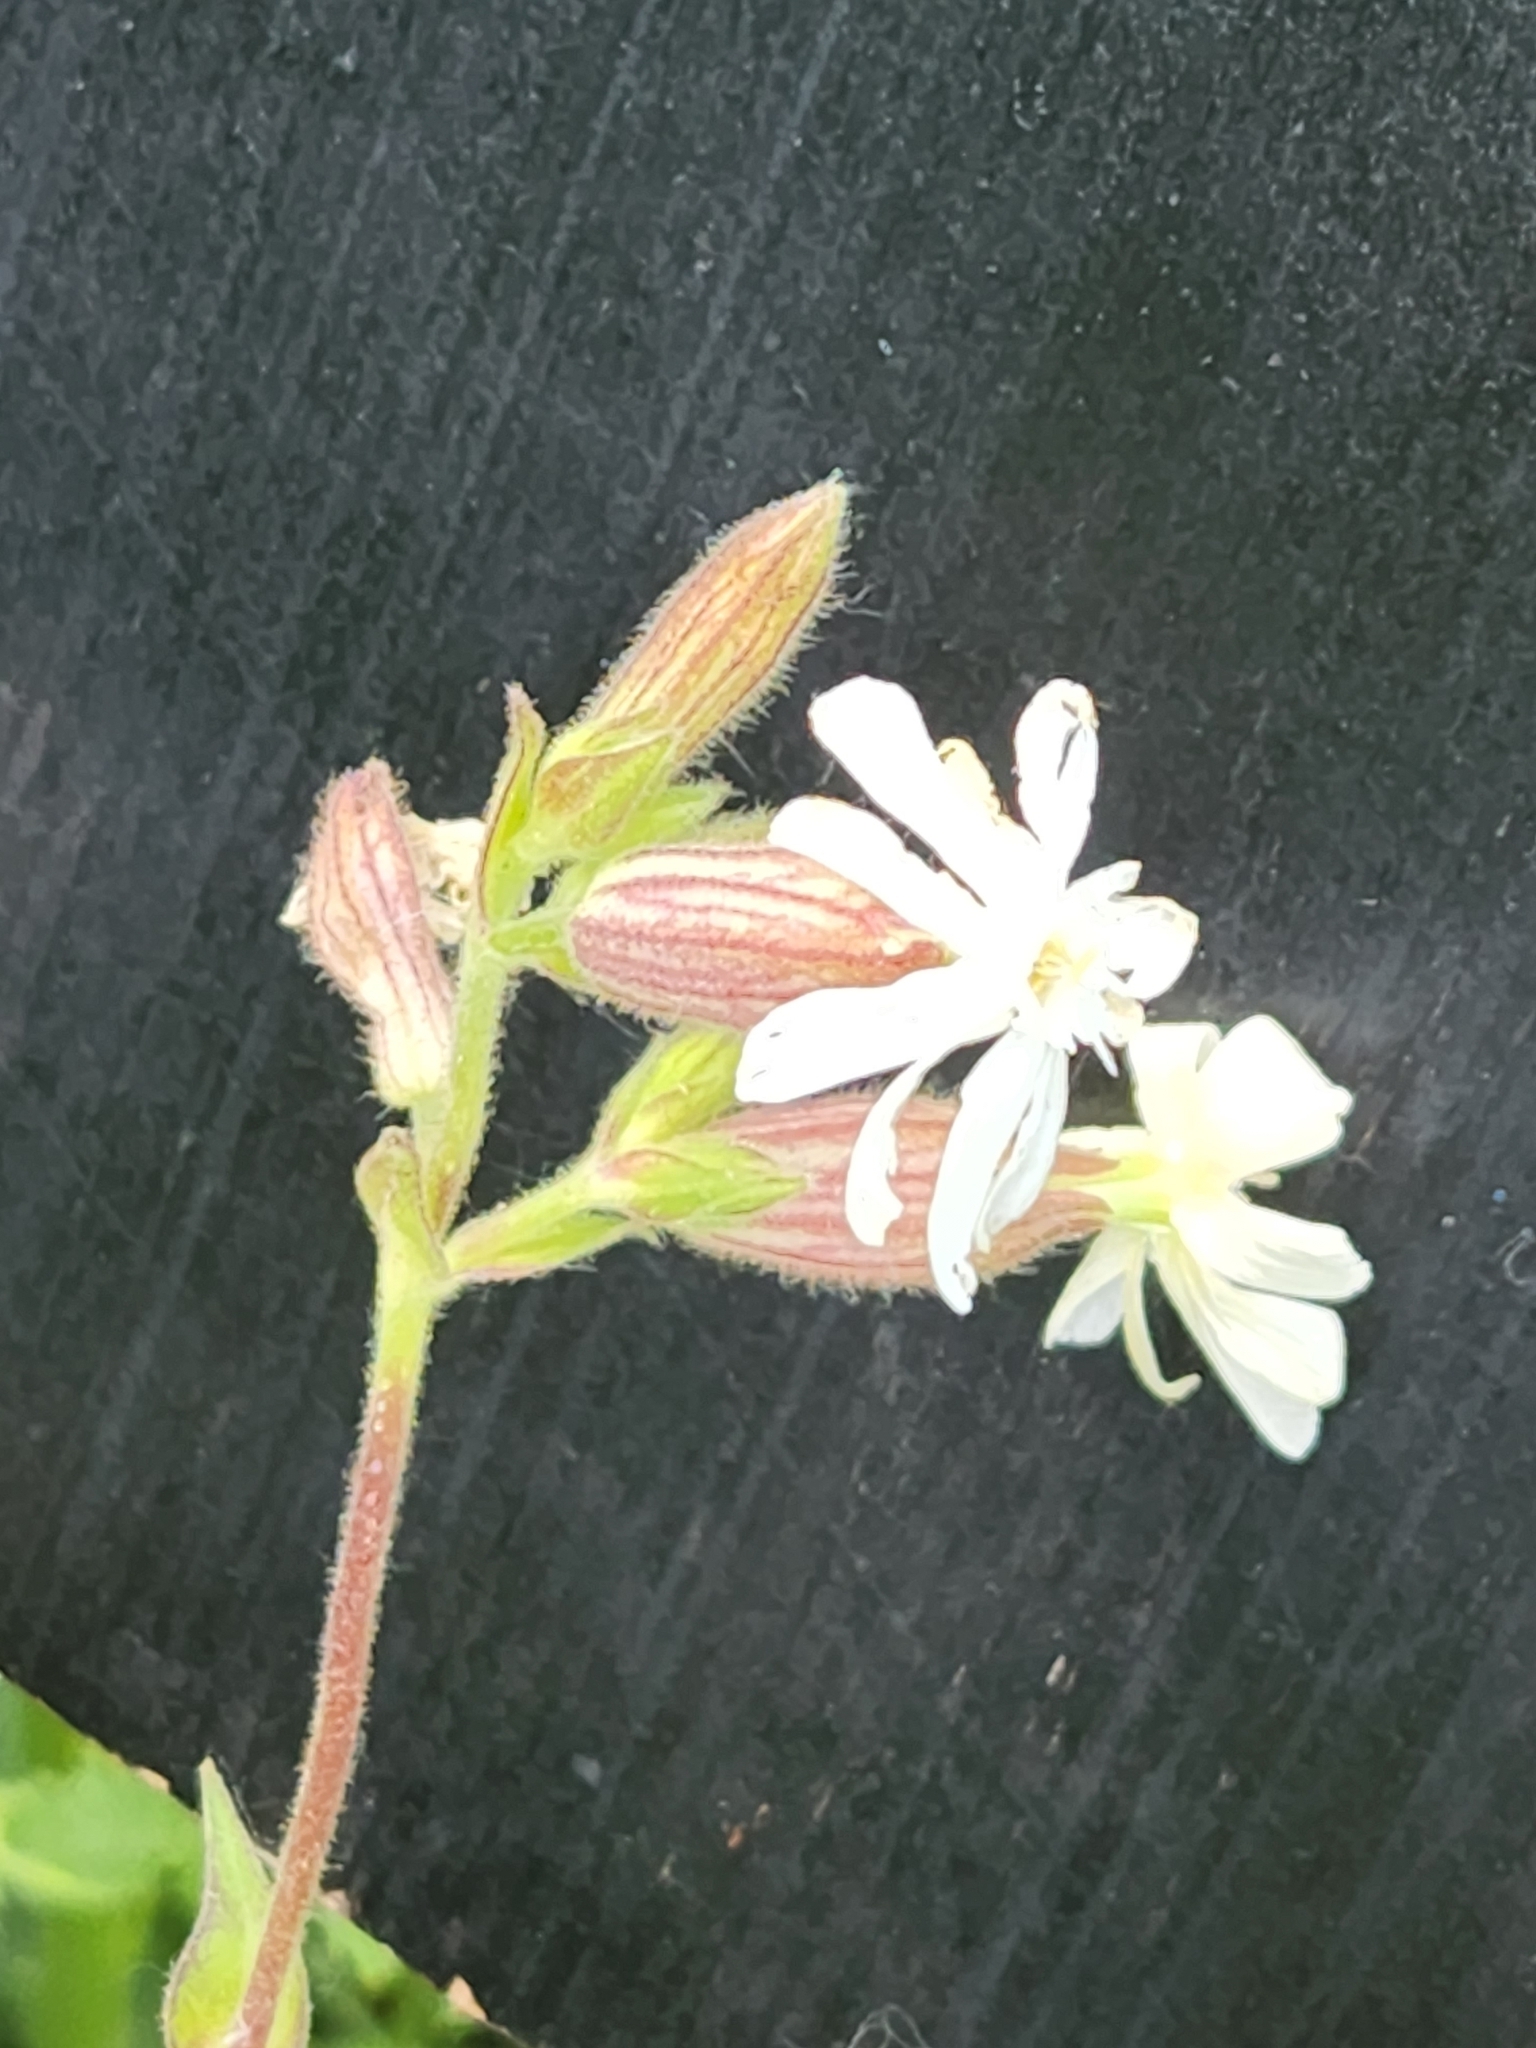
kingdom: Plantae
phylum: Tracheophyta
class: Magnoliopsida
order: Caryophyllales
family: Caryophyllaceae
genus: Silene
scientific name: Silene latifolia
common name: White campion
